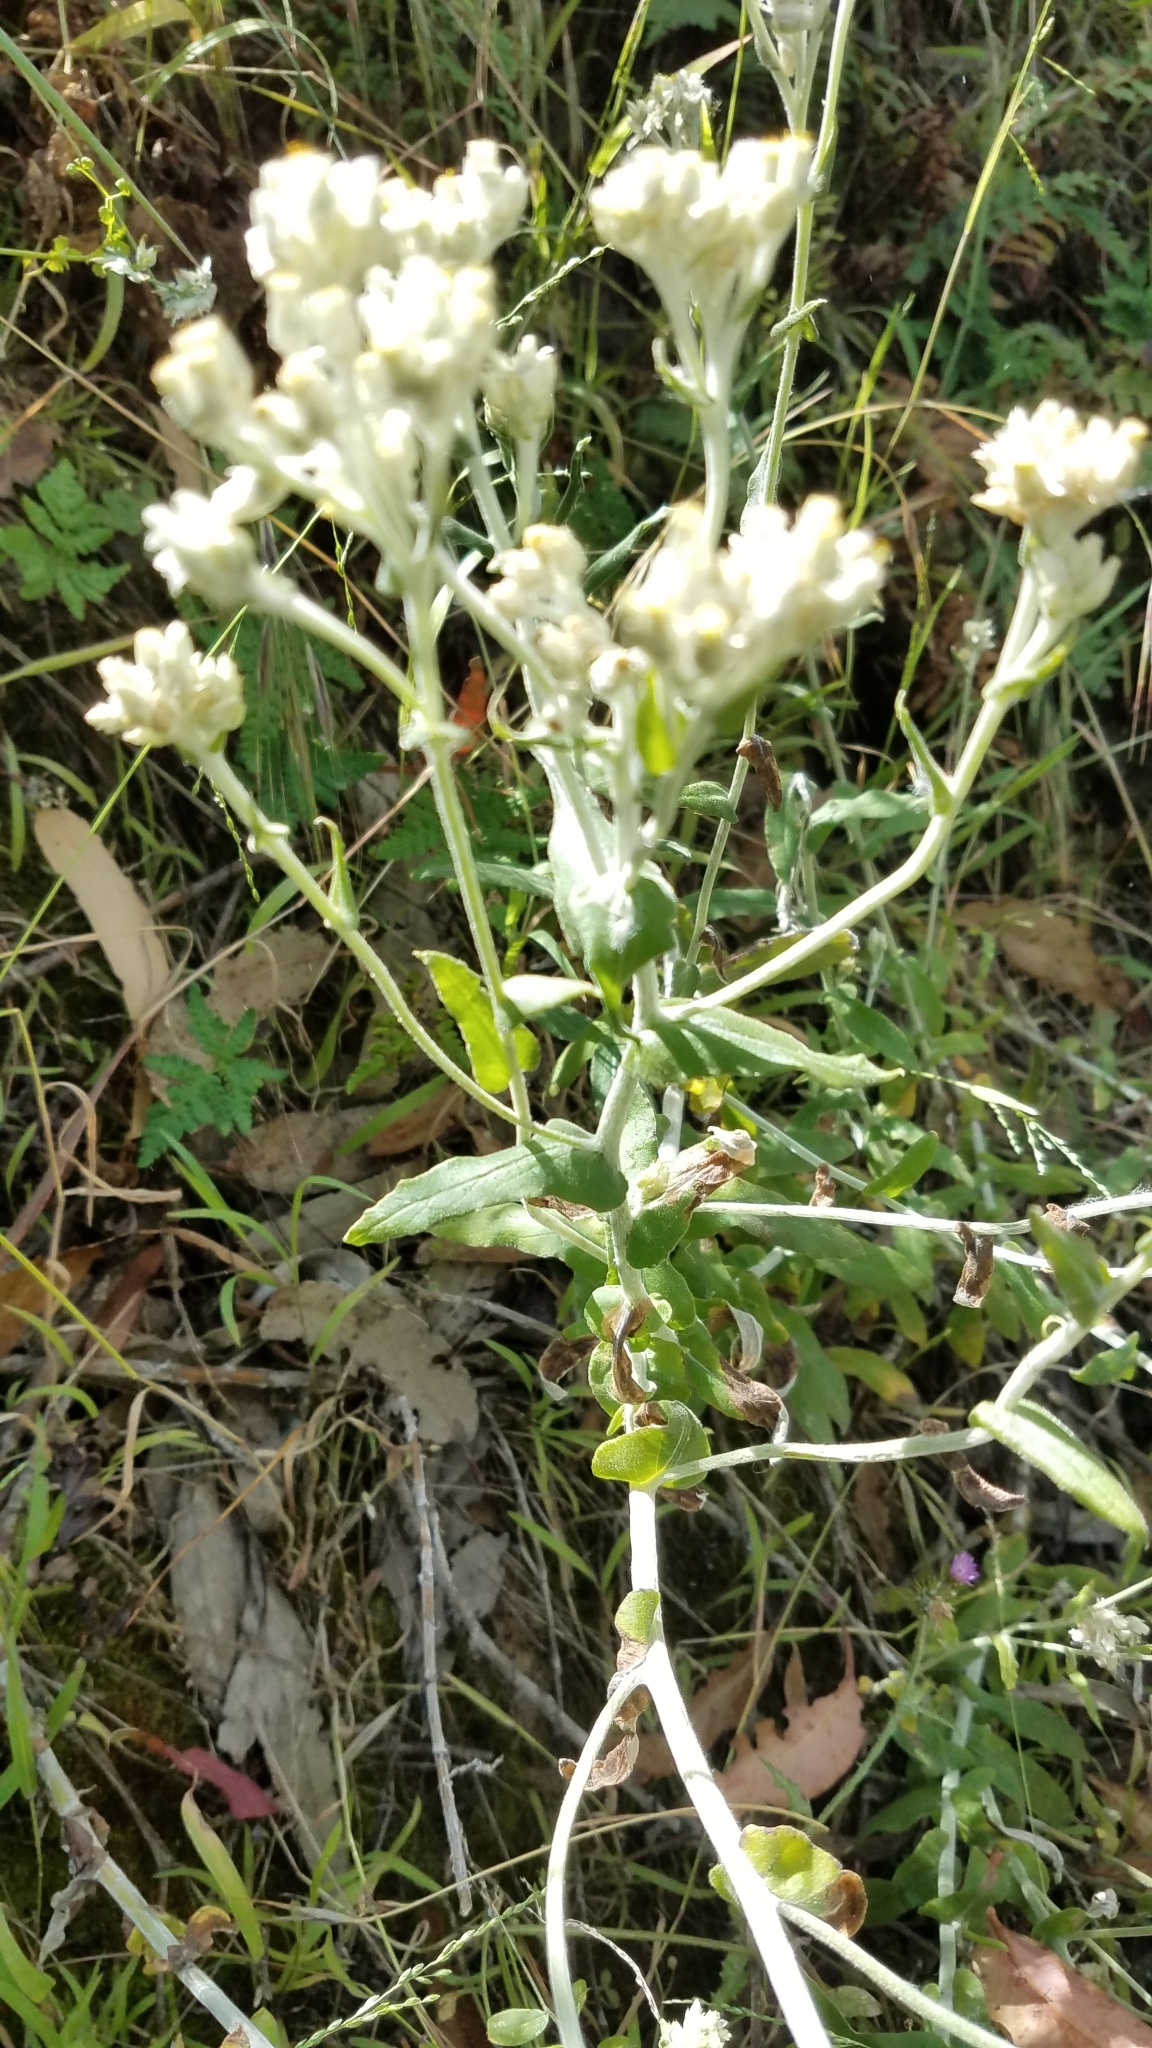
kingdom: Plantae
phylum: Tracheophyta
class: Magnoliopsida
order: Asterales
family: Asteraceae
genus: Pseudognaphalium
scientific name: Pseudognaphalium californicum
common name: California rabbit-tobacco
